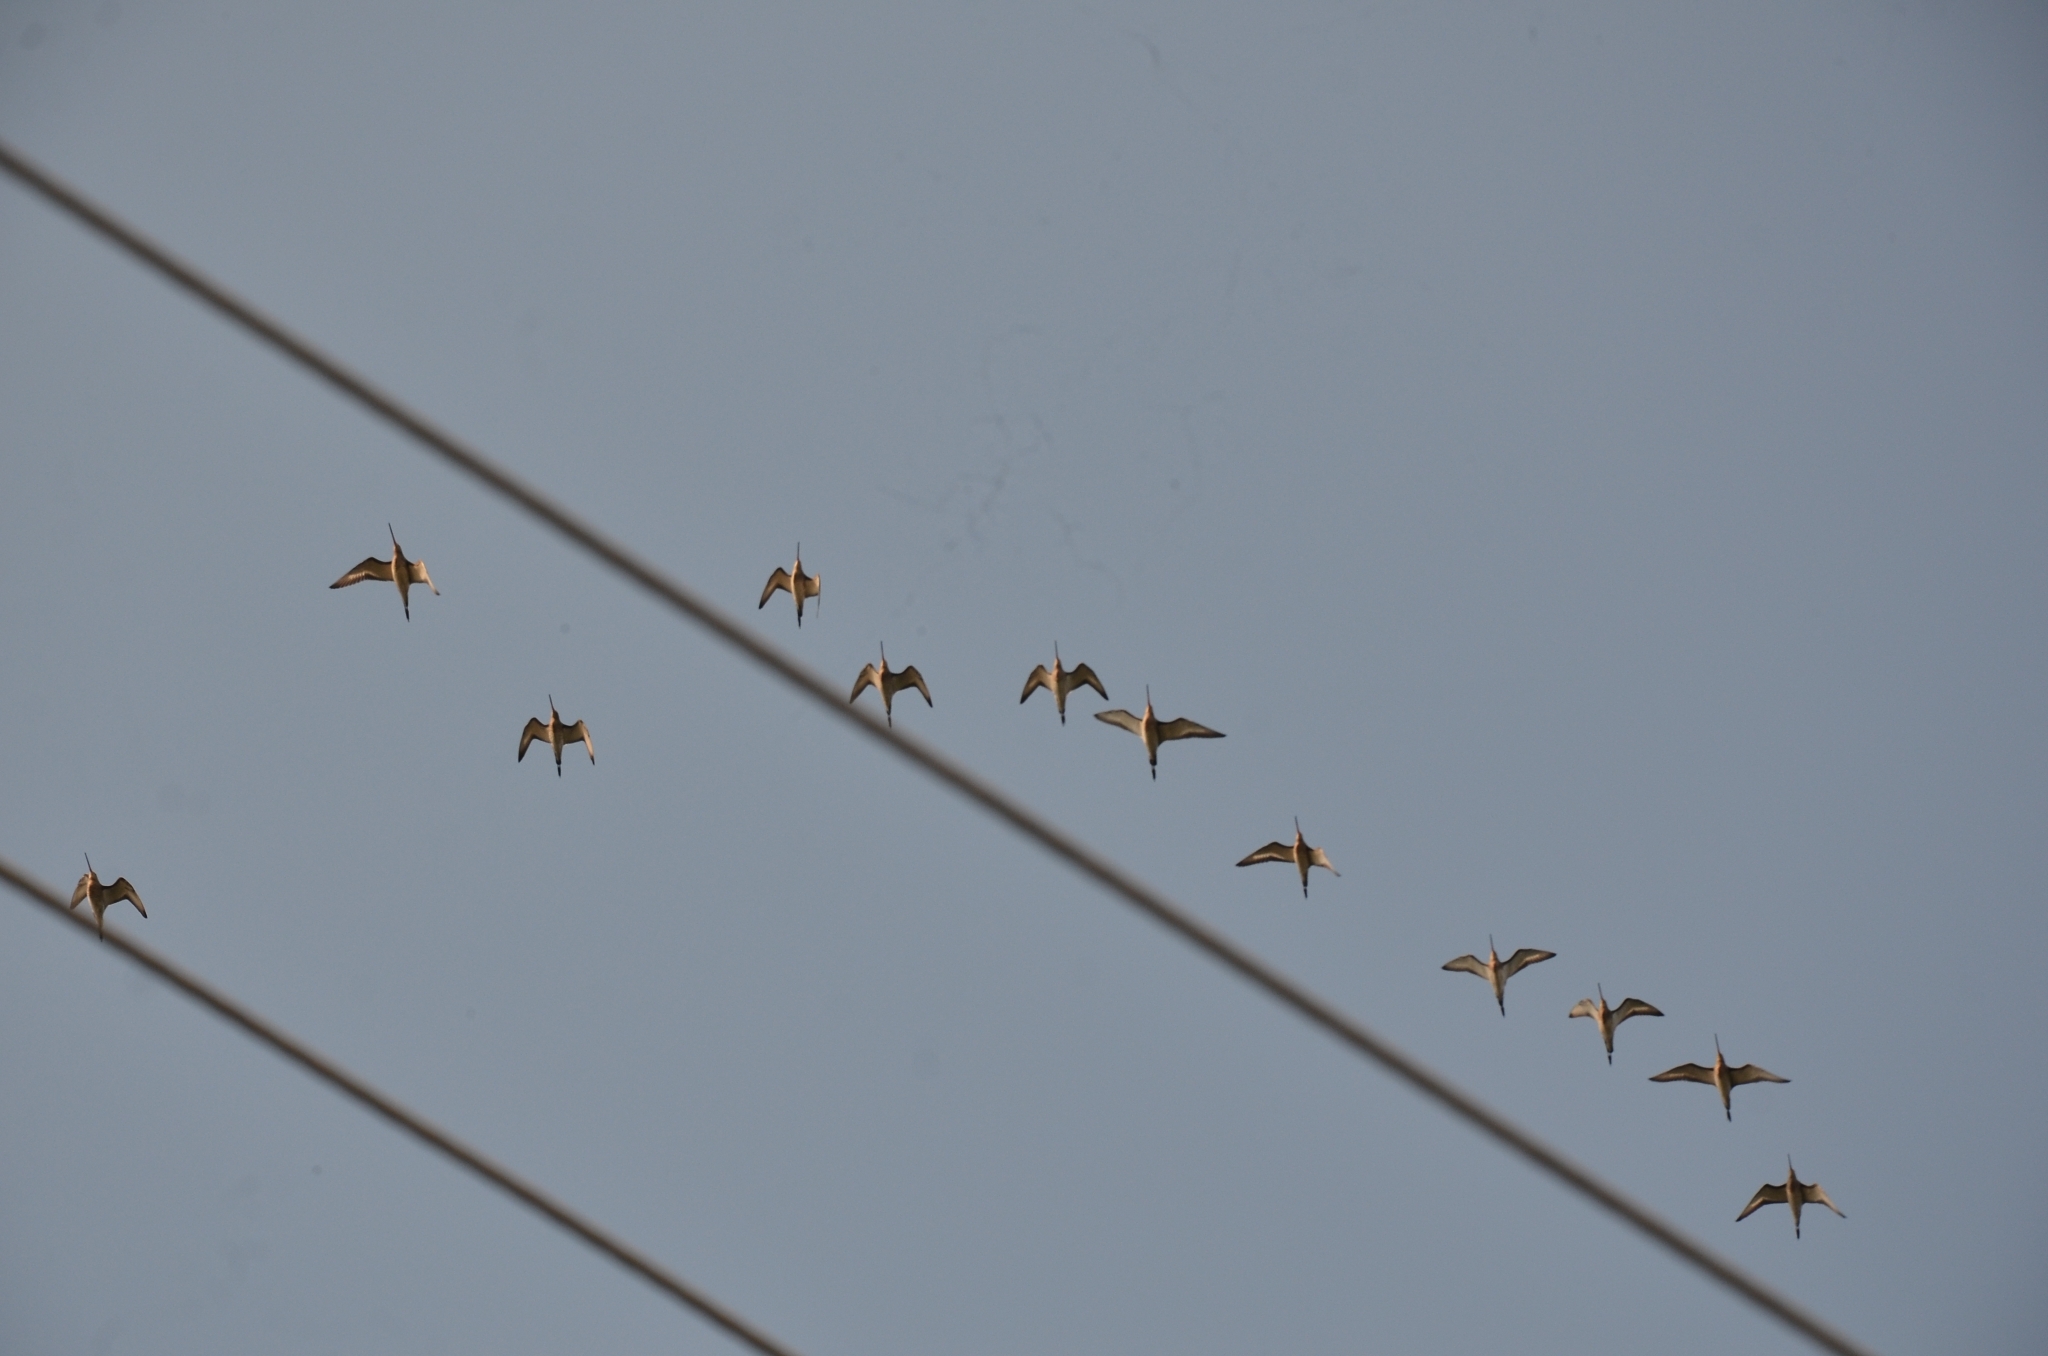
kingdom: Animalia
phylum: Chordata
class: Aves
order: Charadriiformes
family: Scolopacidae
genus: Limosa
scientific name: Limosa limosa
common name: Black-tailed godwit
